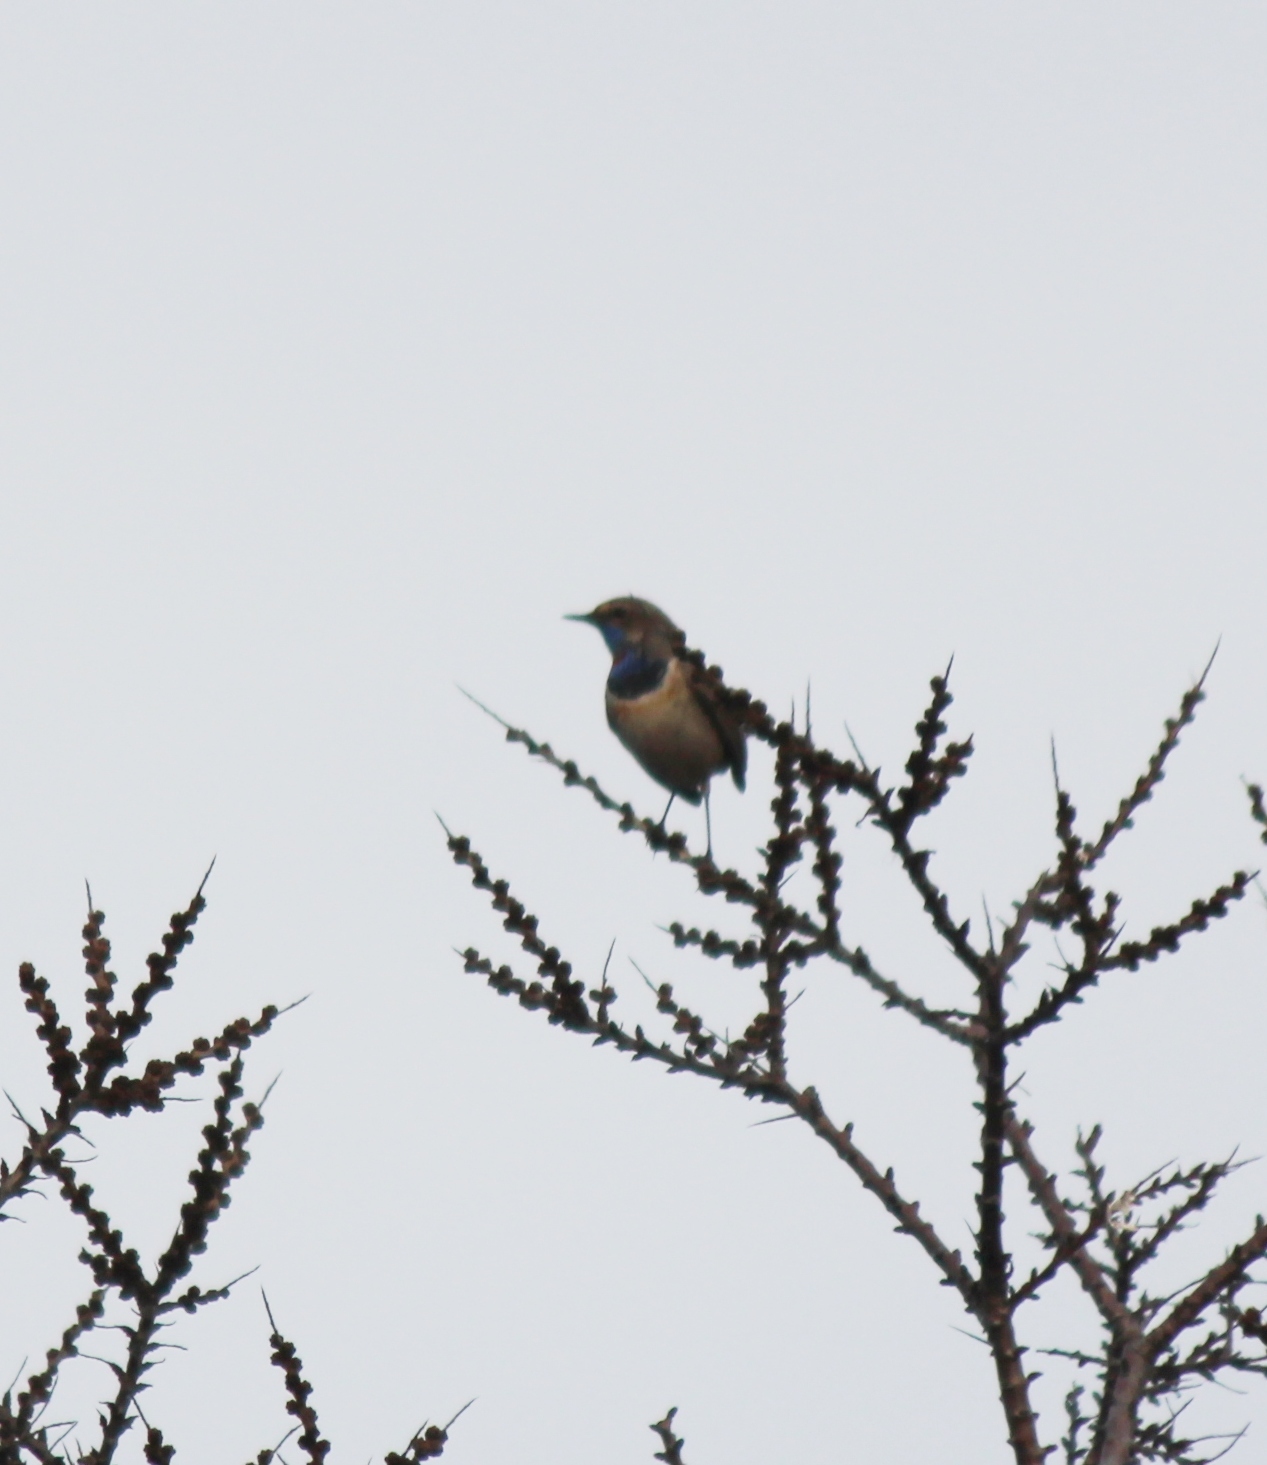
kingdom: Animalia
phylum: Chordata
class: Aves
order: Passeriformes
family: Muscicapidae
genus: Luscinia
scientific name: Luscinia svecica
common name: Bluethroat
